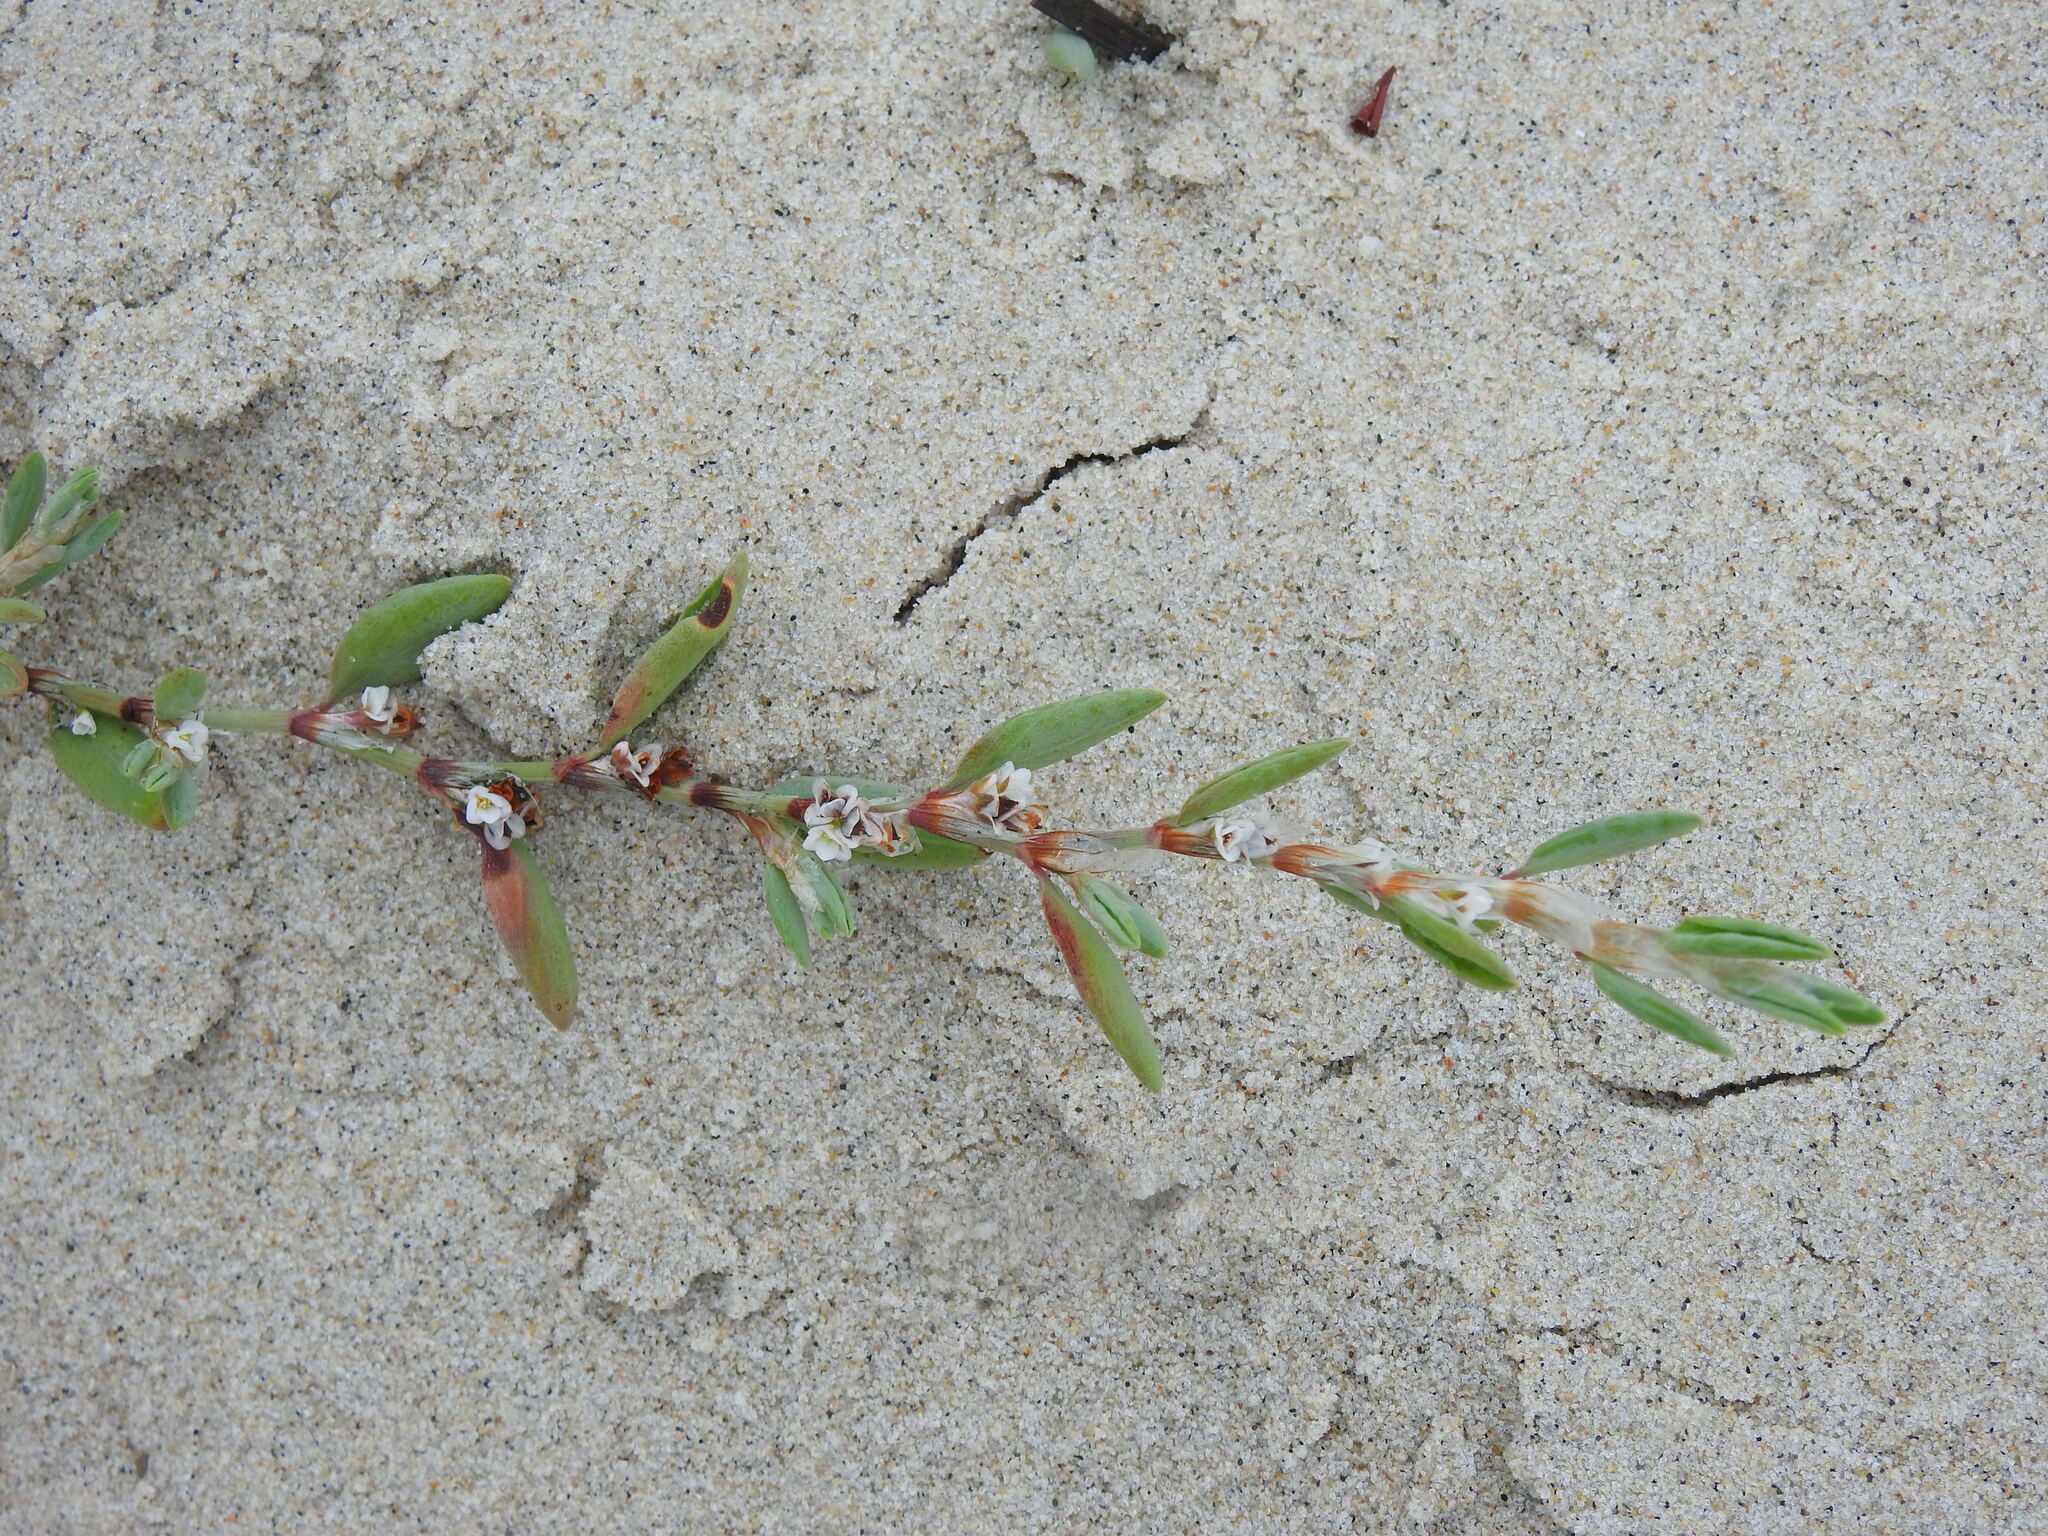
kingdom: Plantae
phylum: Tracheophyta
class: Magnoliopsida
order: Caryophyllales
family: Polygonaceae
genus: Polygonum
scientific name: Polygonum maritimum
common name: Sea knotgrass
